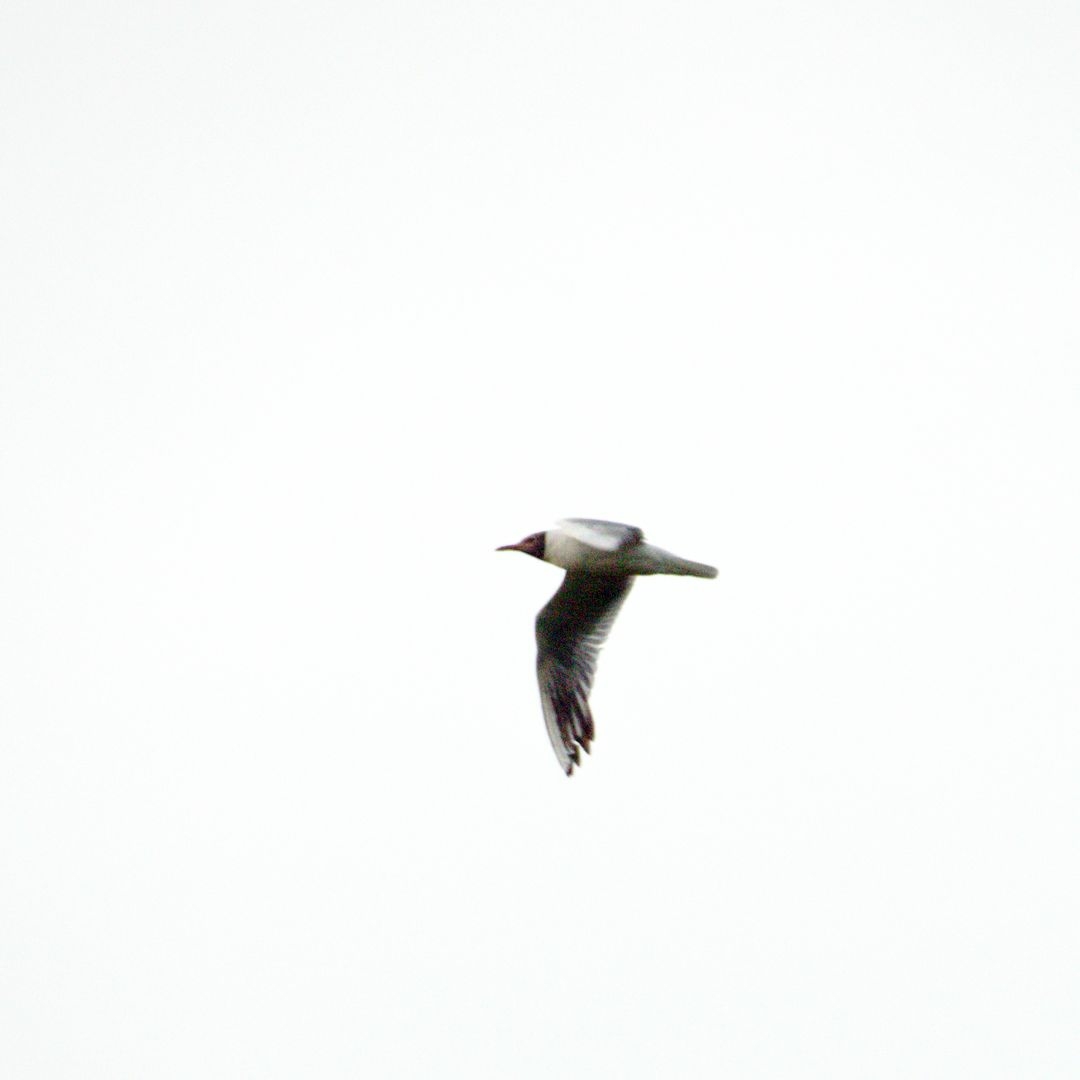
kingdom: Animalia
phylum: Chordata
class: Aves
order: Charadriiformes
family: Laridae
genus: Chroicocephalus
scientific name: Chroicocephalus ridibundus
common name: Black-headed gull
